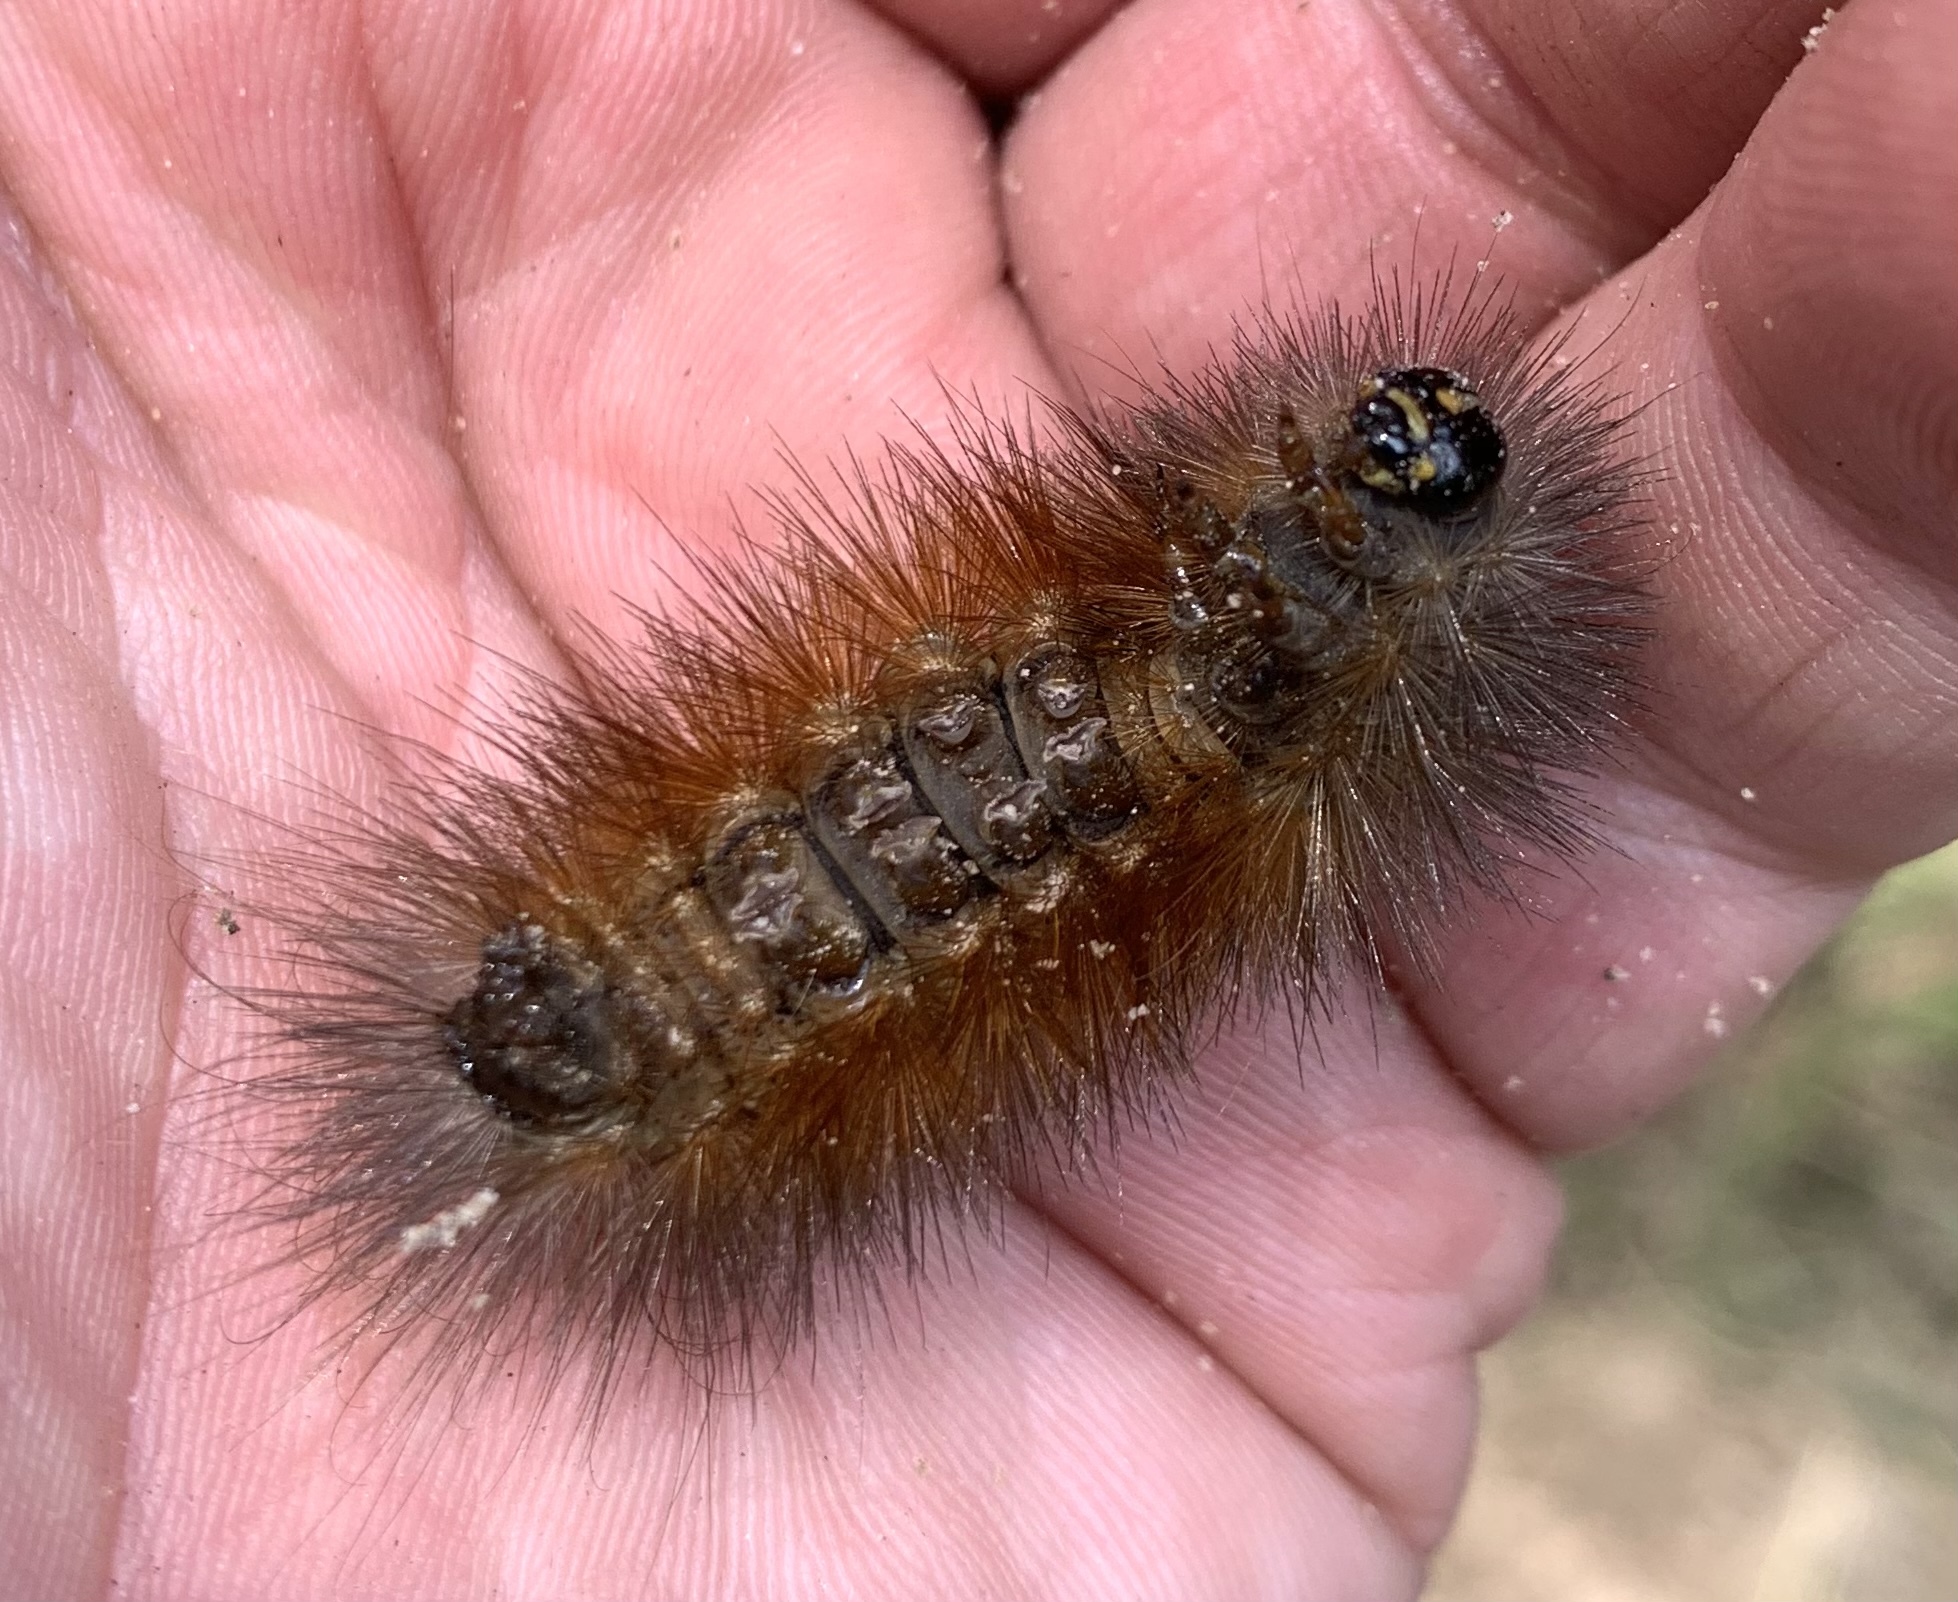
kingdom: Animalia
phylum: Arthropoda
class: Insecta
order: Lepidoptera
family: Erebidae
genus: Estigmene
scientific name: Estigmene acrea
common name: Salt marsh moth
